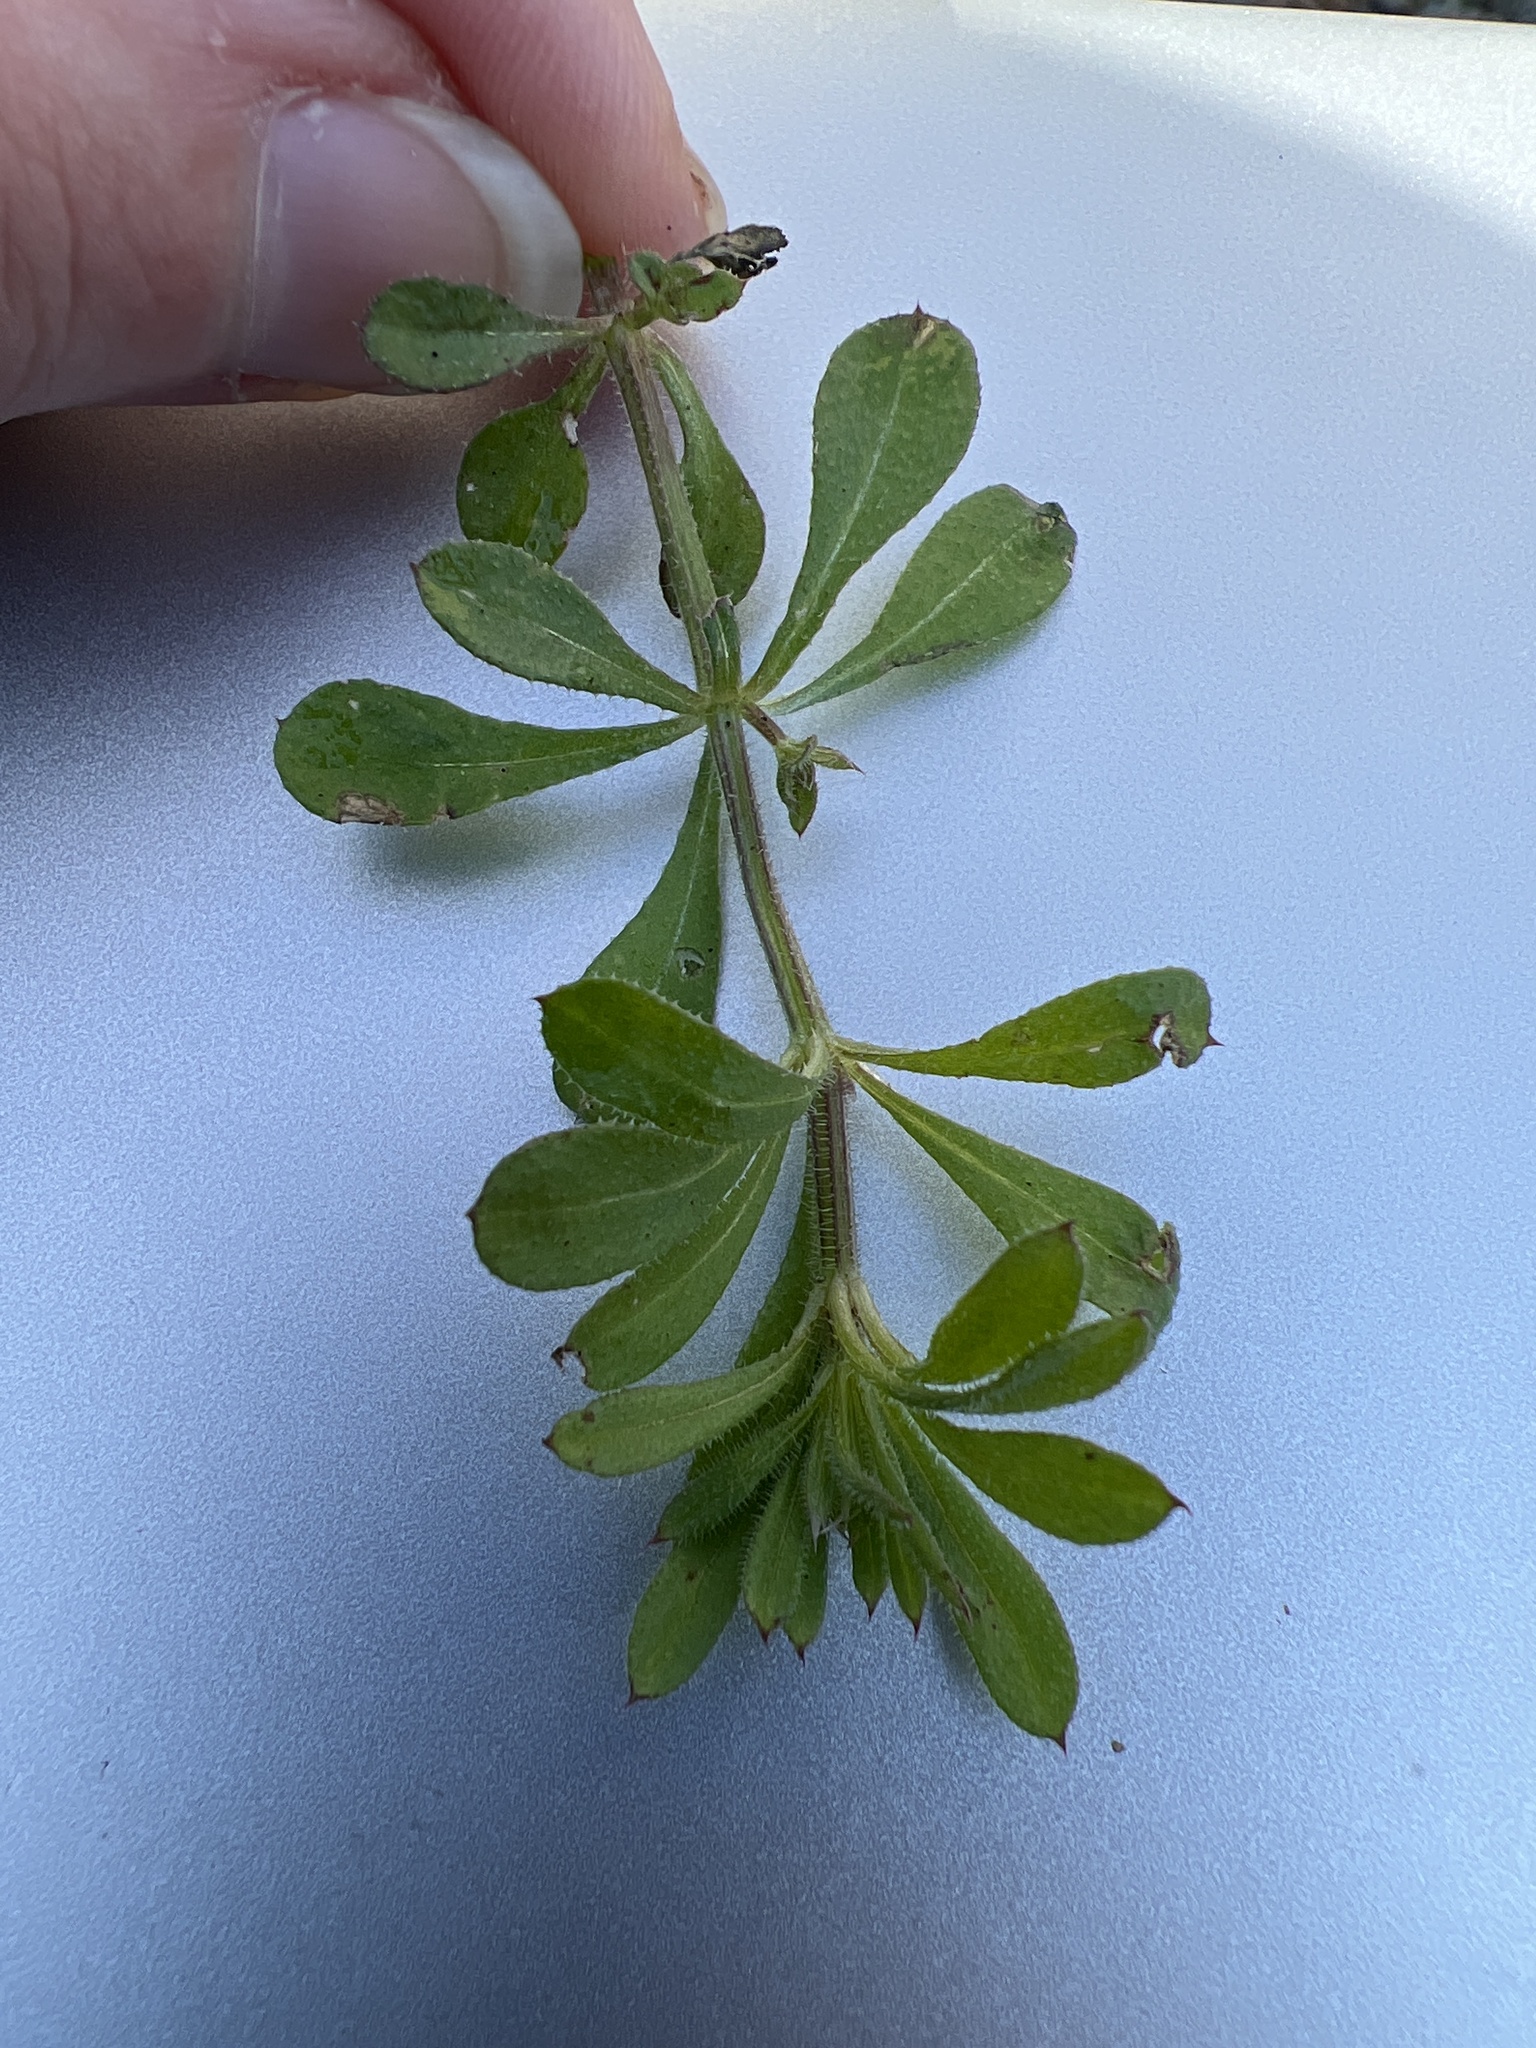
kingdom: Plantae
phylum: Tracheophyta
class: Magnoliopsida
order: Gentianales
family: Rubiaceae
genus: Galium
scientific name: Galium aparine
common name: Cleavers
